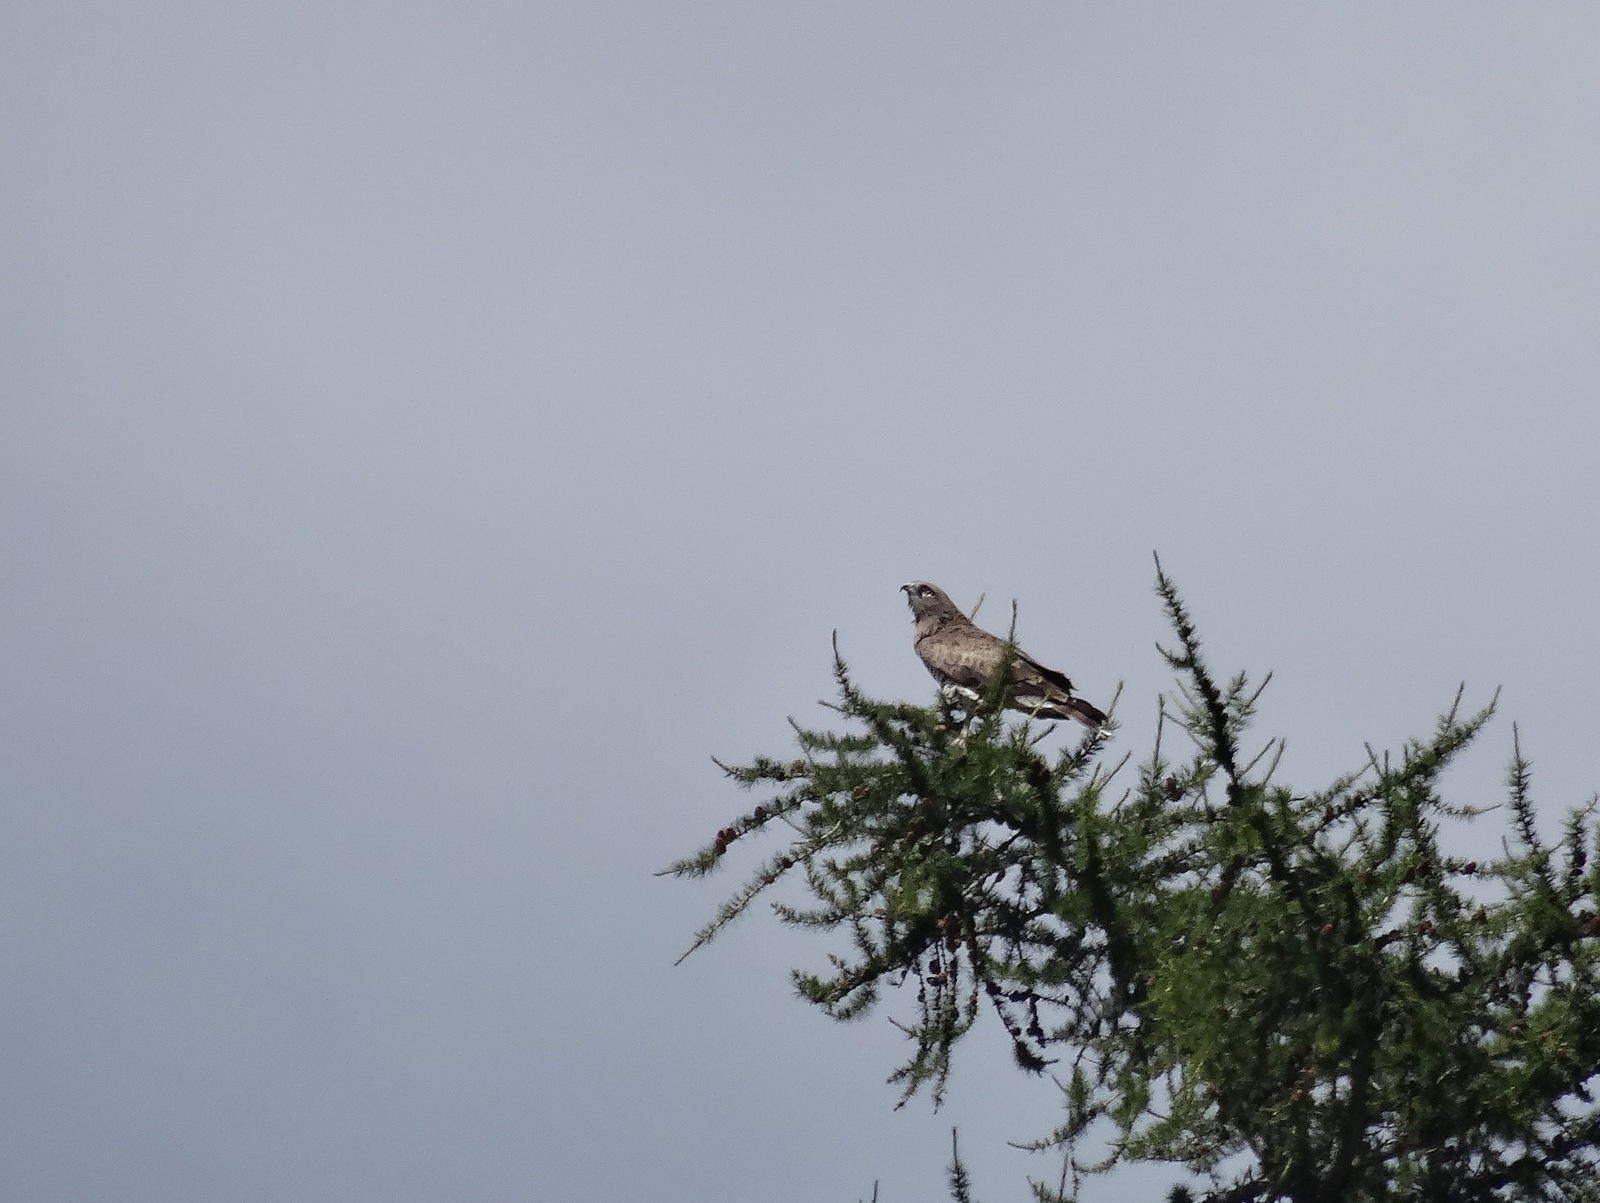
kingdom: Animalia
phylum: Chordata
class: Aves
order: Accipitriformes
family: Accipitridae
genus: Circaetus
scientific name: Circaetus gallicus
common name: Short-toed snake eagle
